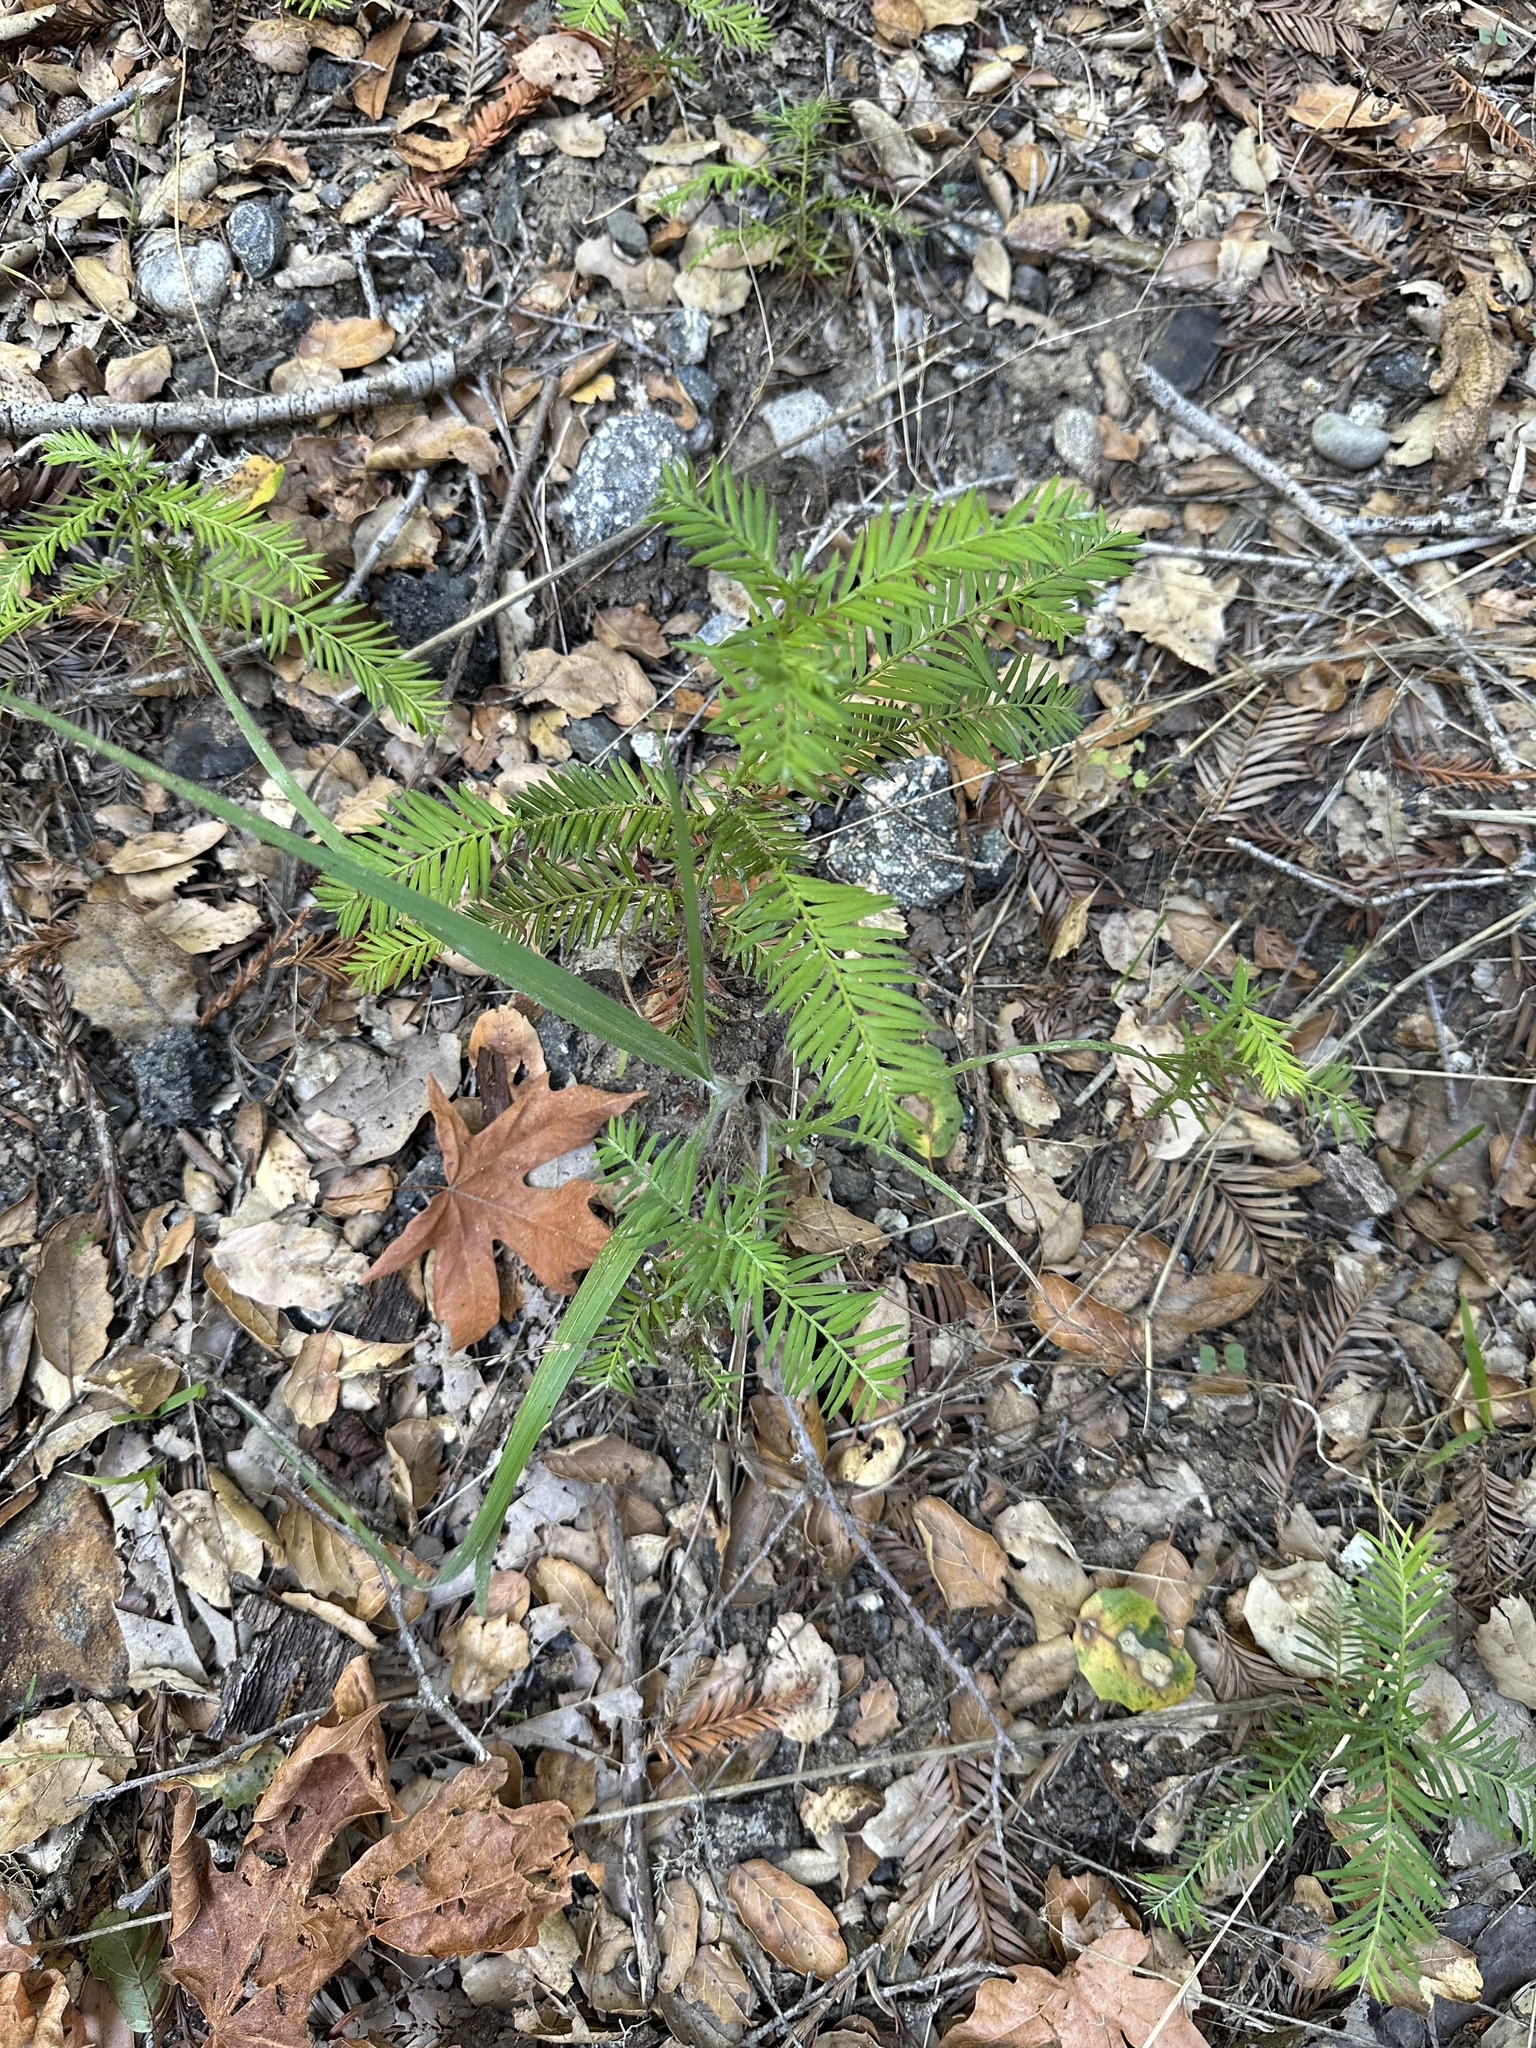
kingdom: Plantae
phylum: Tracheophyta
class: Pinopsida
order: Pinales
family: Cupressaceae
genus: Sequoia
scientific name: Sequoia sempervirens
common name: Coast redwood
